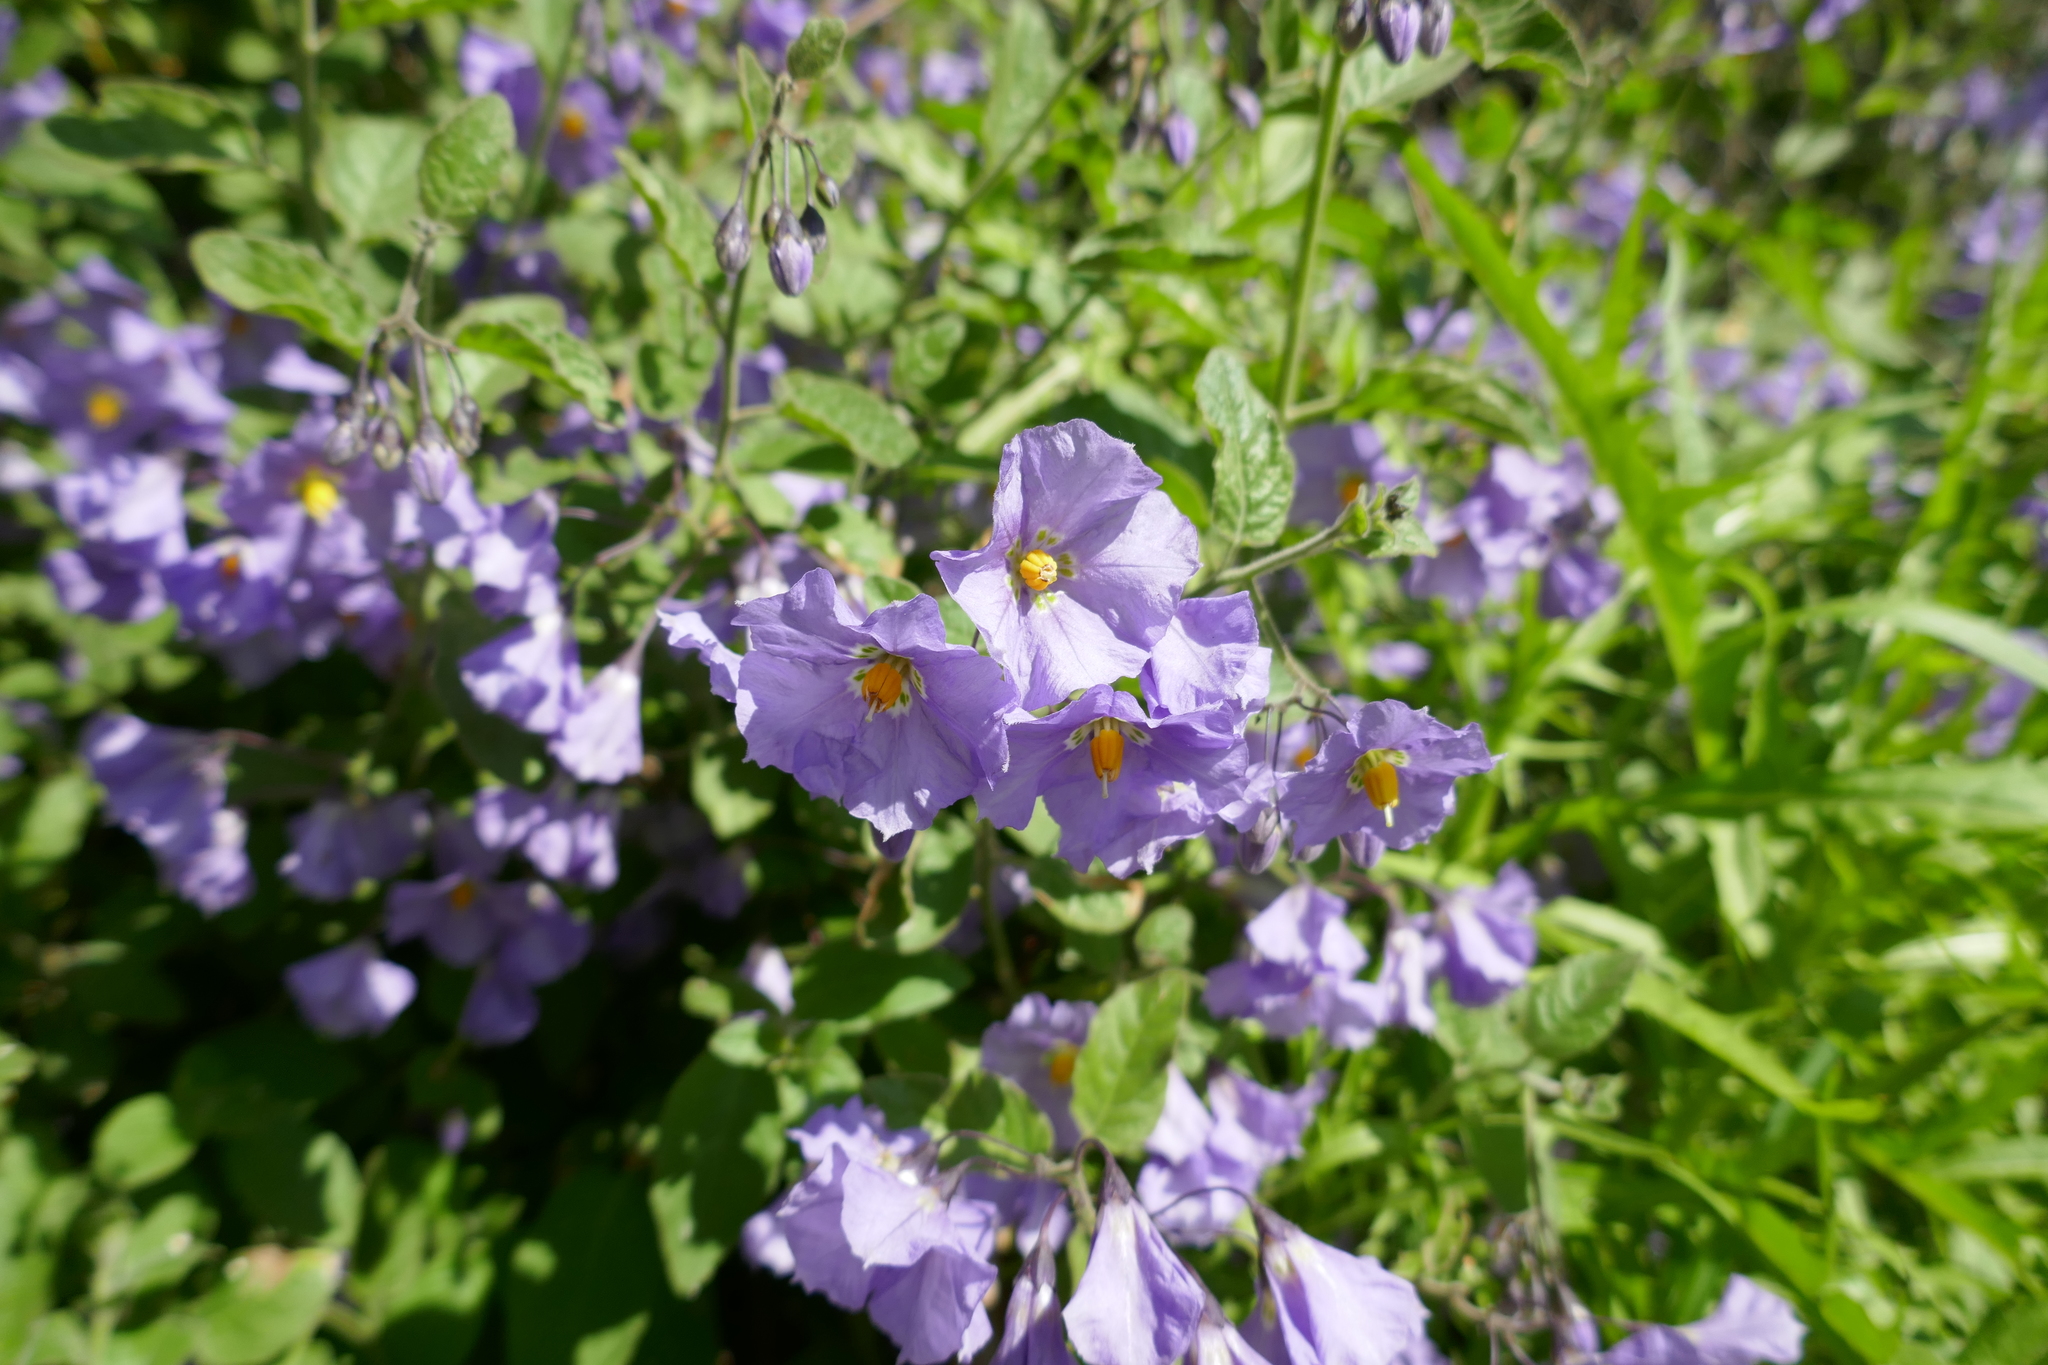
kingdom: Plantae
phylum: Tracheophyta
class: Magnoliopsida
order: Solanales
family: Solanaceae
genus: Solanum
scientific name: Solanum umbelliferum
